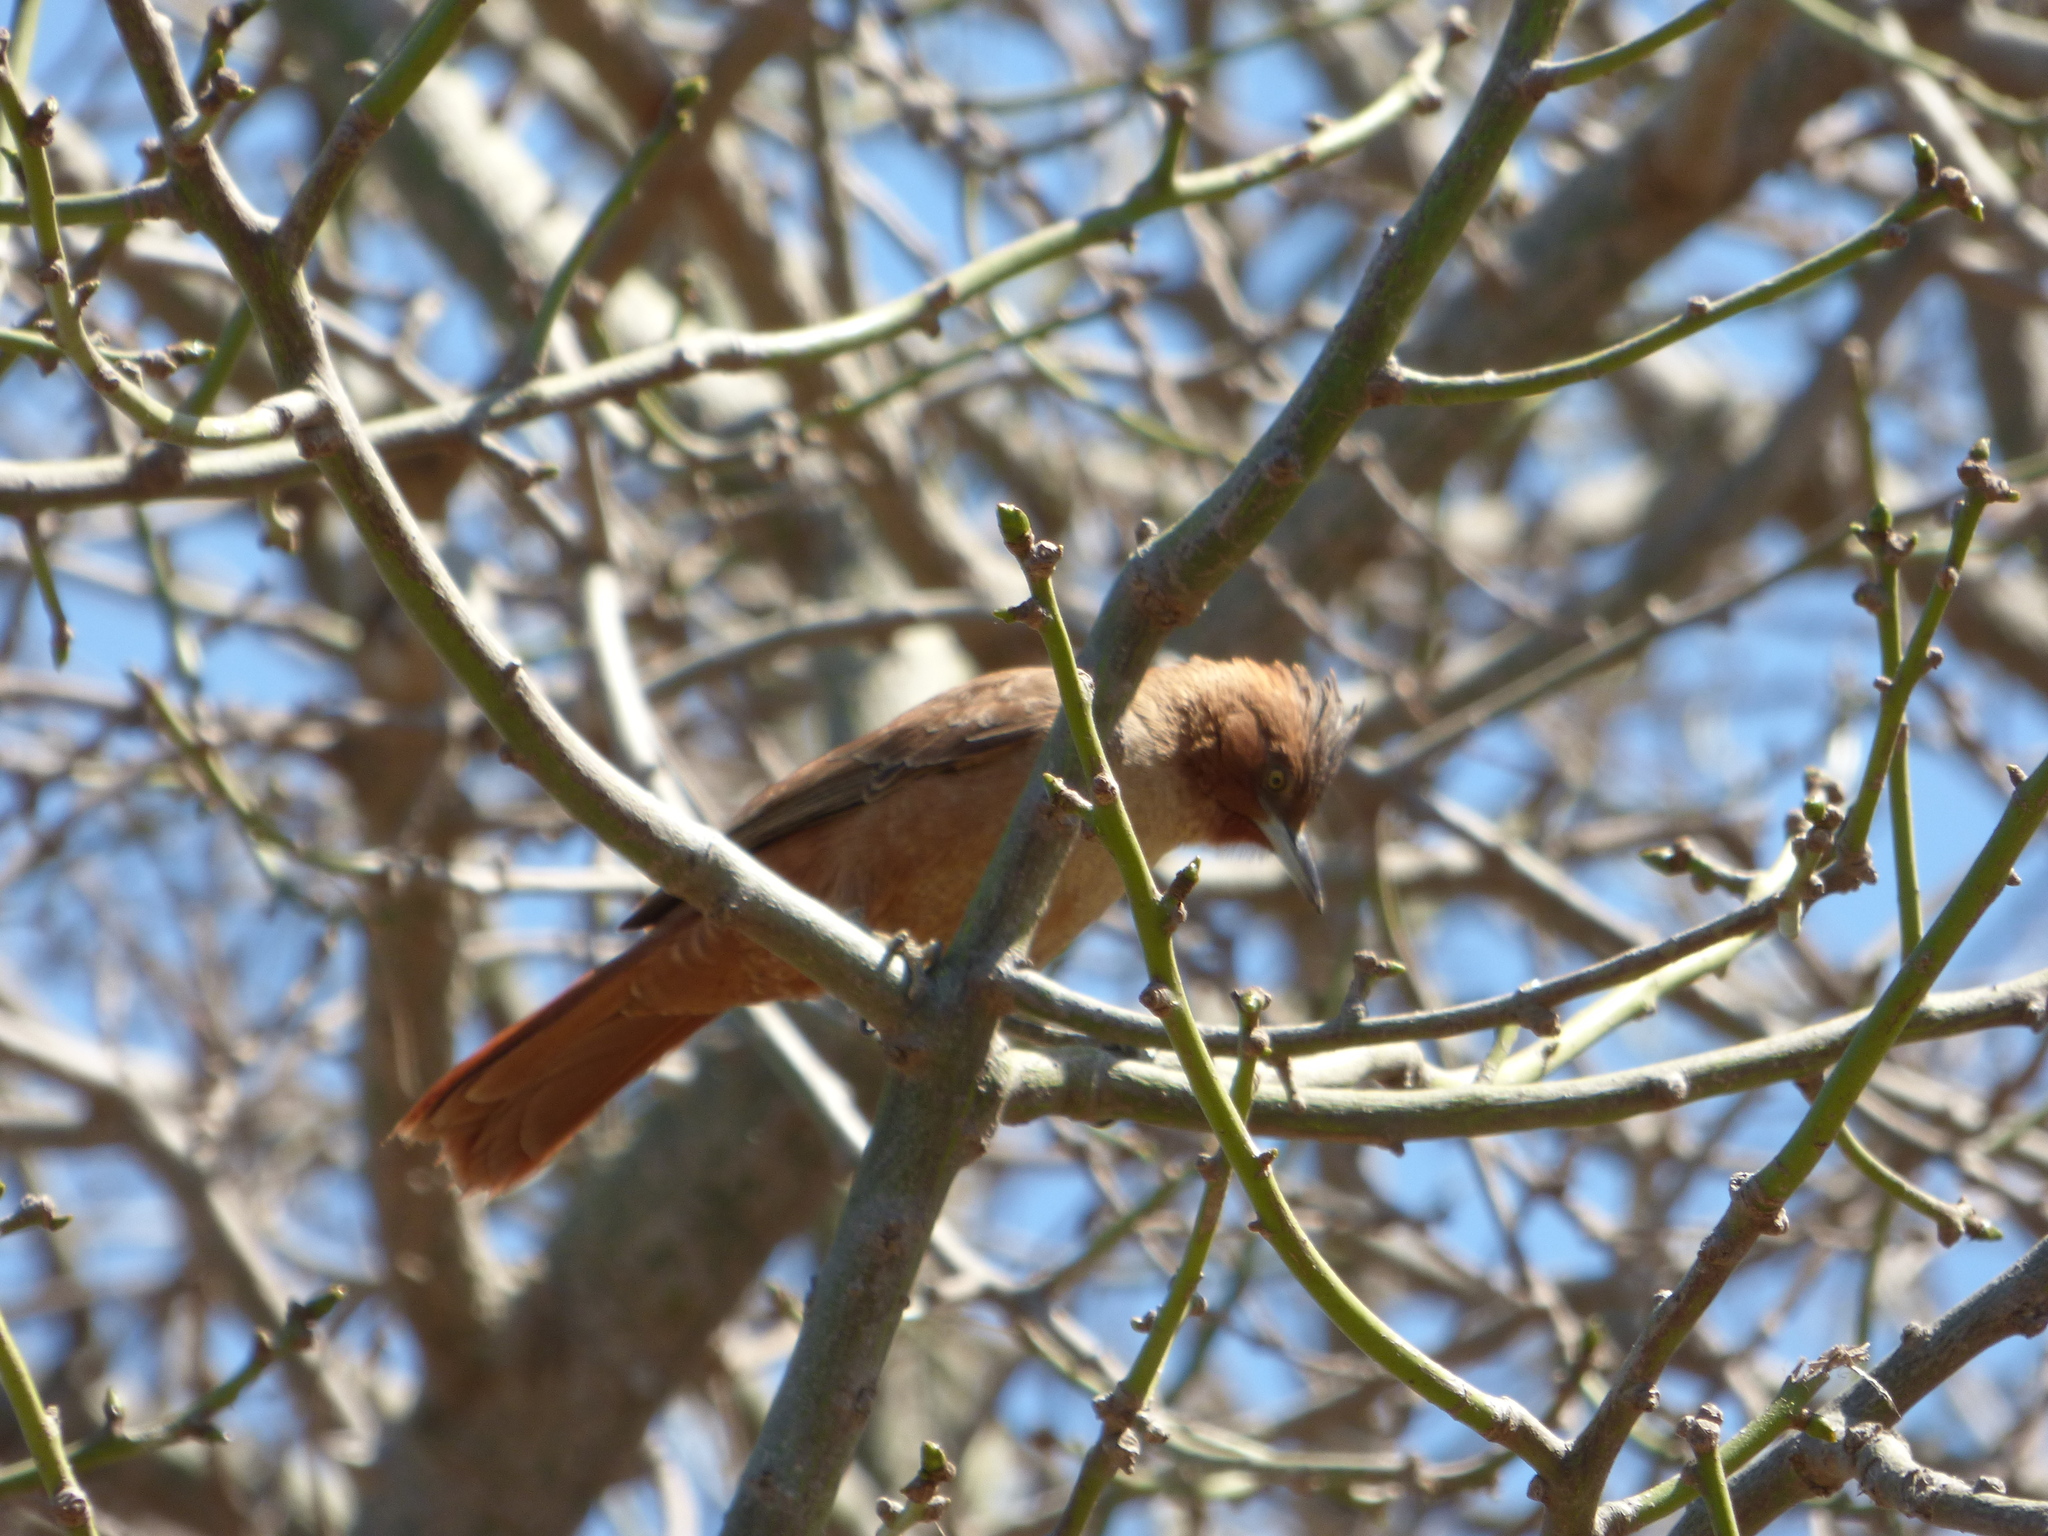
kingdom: Animalia
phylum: Chordata
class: Aves
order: Passeriformes
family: Furnariidae
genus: Pseudoseisura
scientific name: Pseudoseisura lophotes
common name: Brown cacholote
